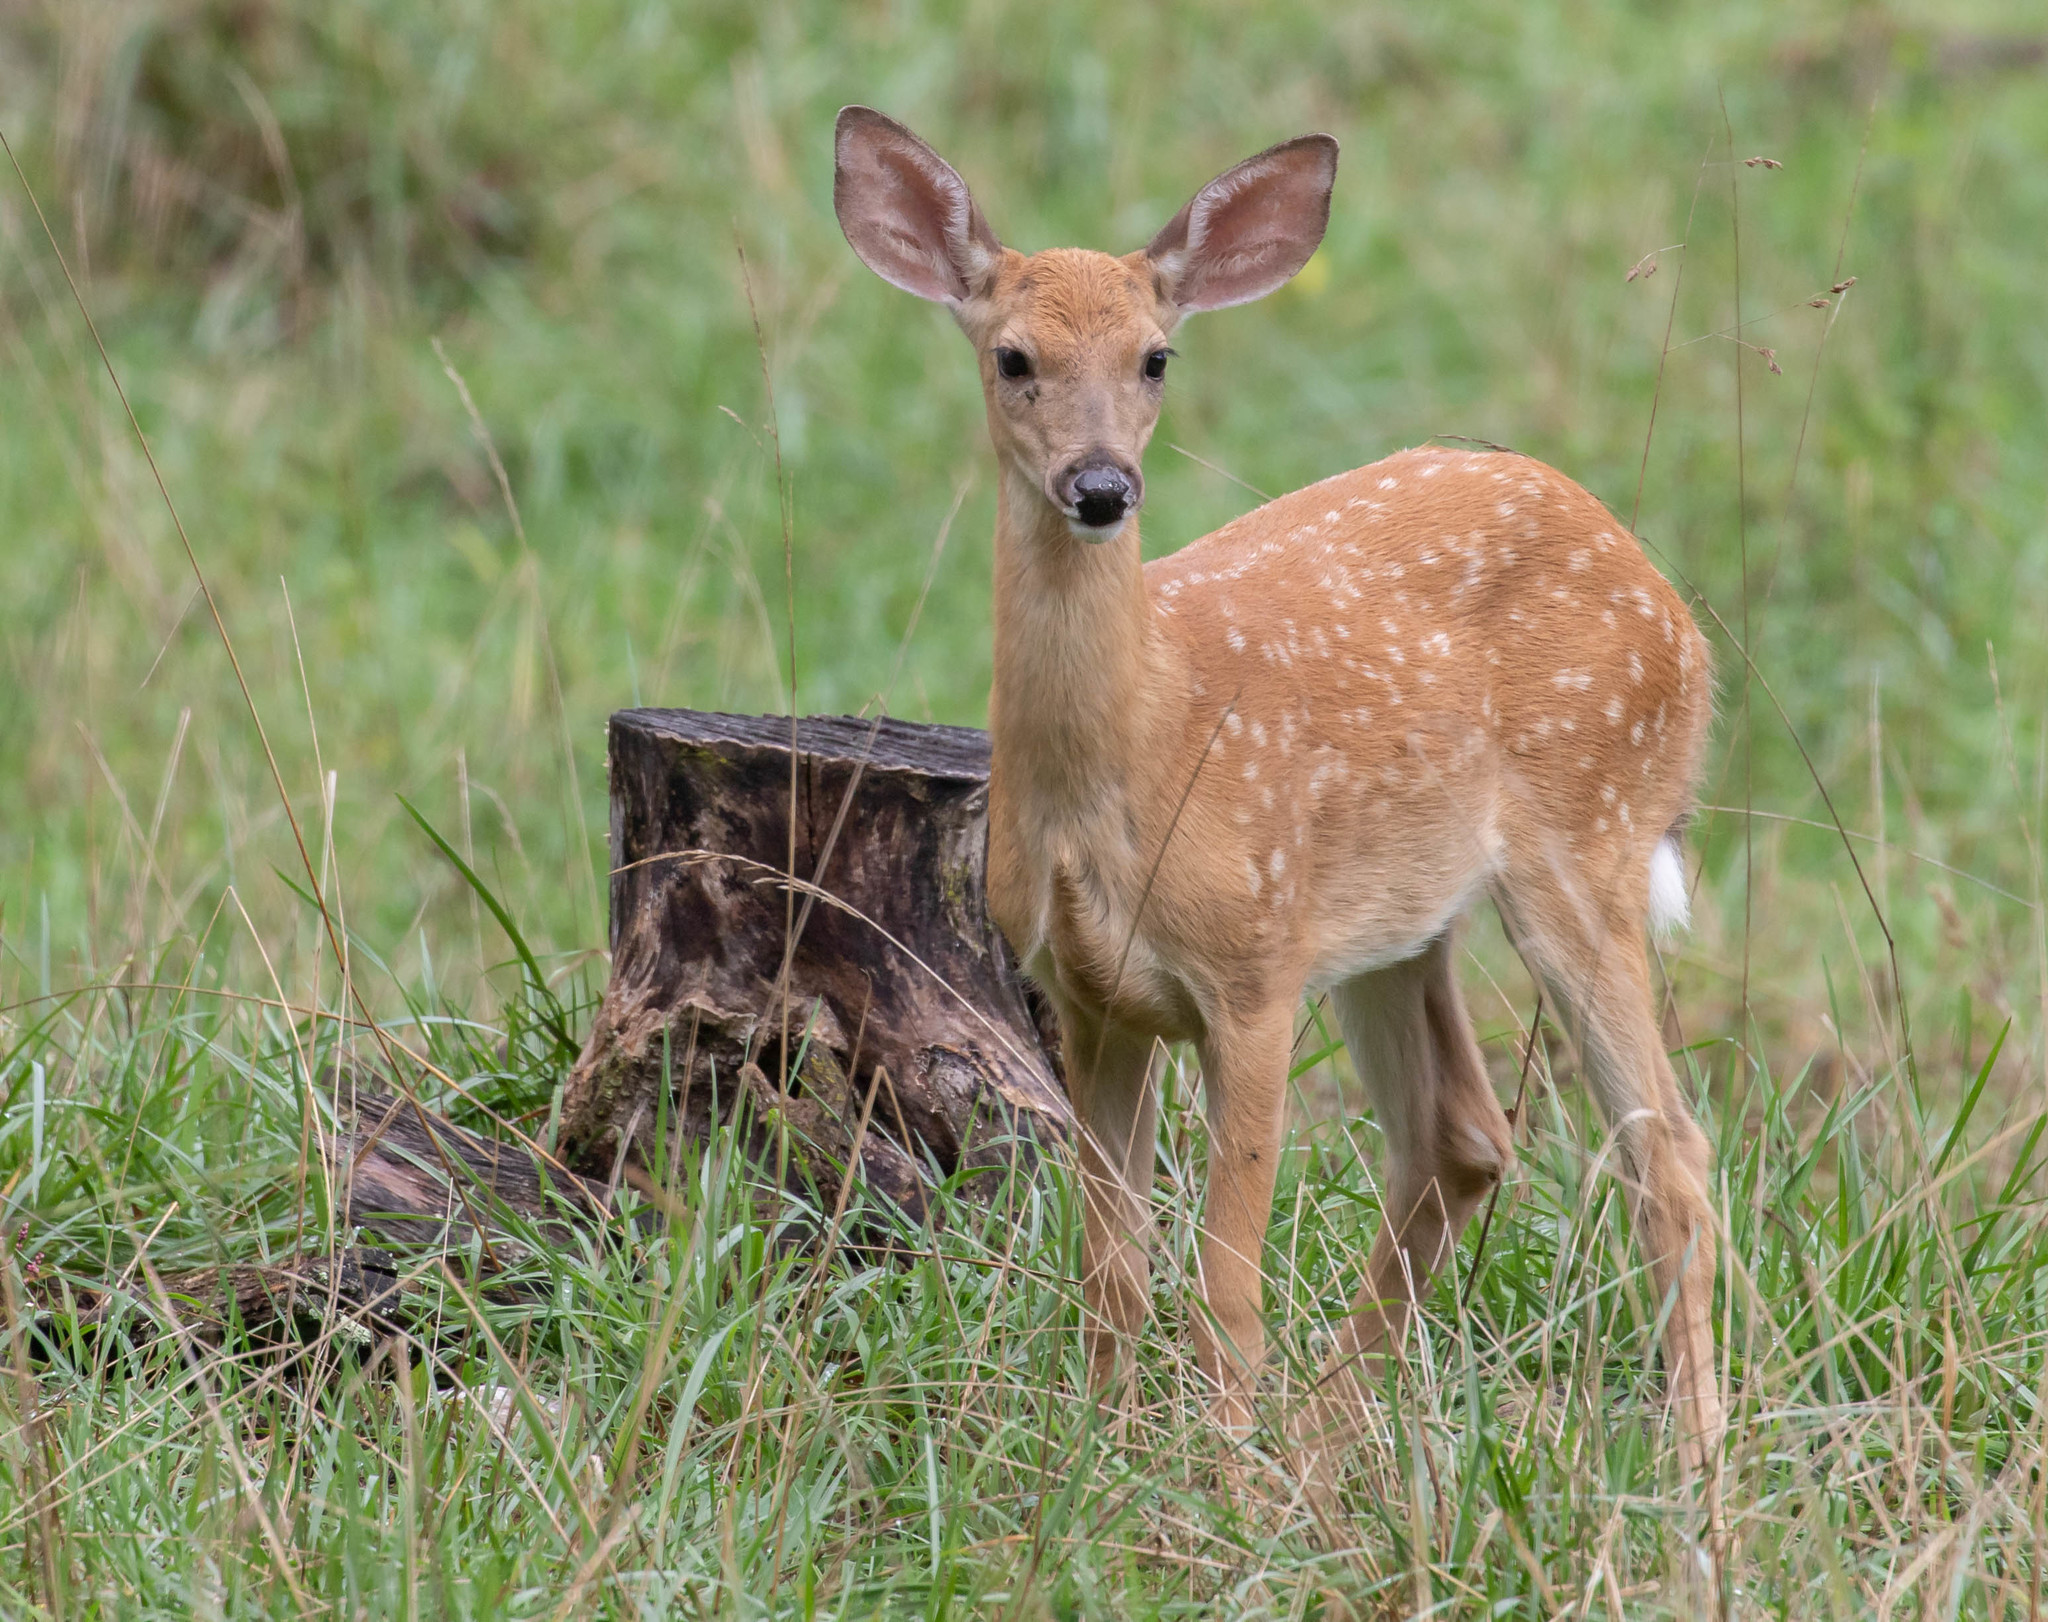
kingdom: Animalia
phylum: Chordata
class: Mammalia
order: Artiodactyla
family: Cervidae
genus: Odocoileus
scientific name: Odocoileus virginianus
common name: White-tailed deer
